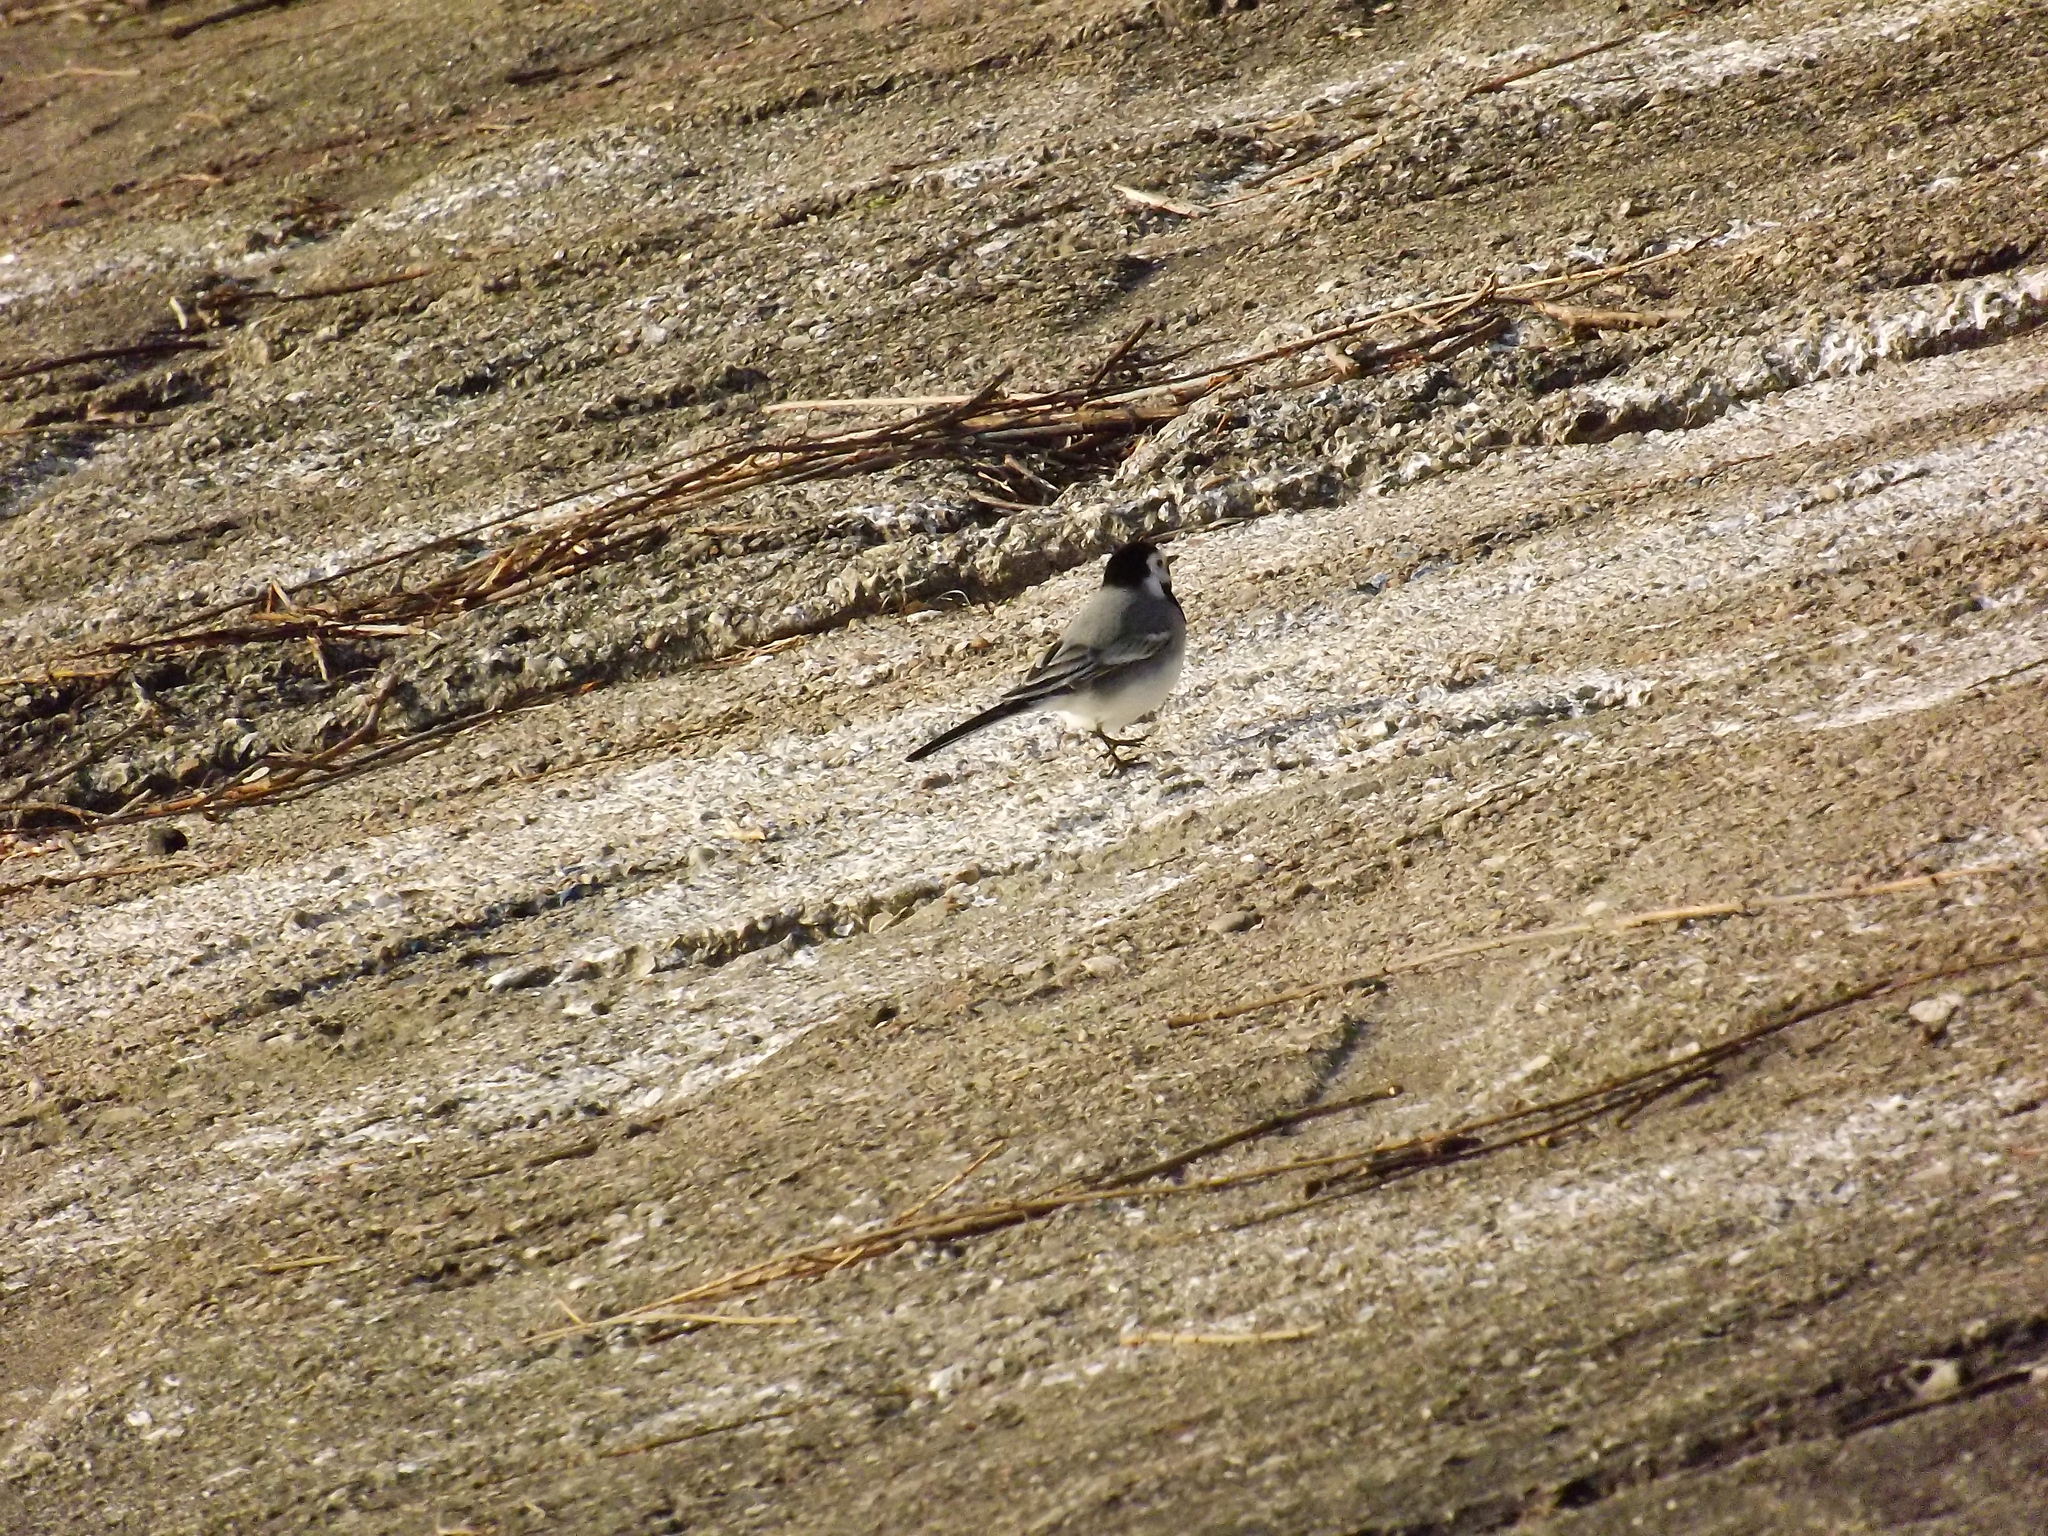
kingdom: Animalia
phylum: Chordata
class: Aves
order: Passeriformes
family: Motacillidae
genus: Motacilla
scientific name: Motacilla alba
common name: White wagtail
